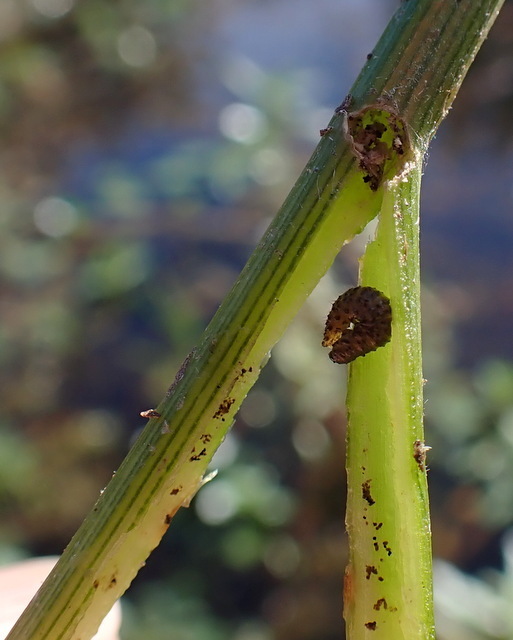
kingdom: Animalia
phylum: Arthropoda
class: Insecta
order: Coleoptera
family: Chrysomelidae
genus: Agasicles
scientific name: Agasicles hygrophila
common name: Alligatorweed flea beetle
